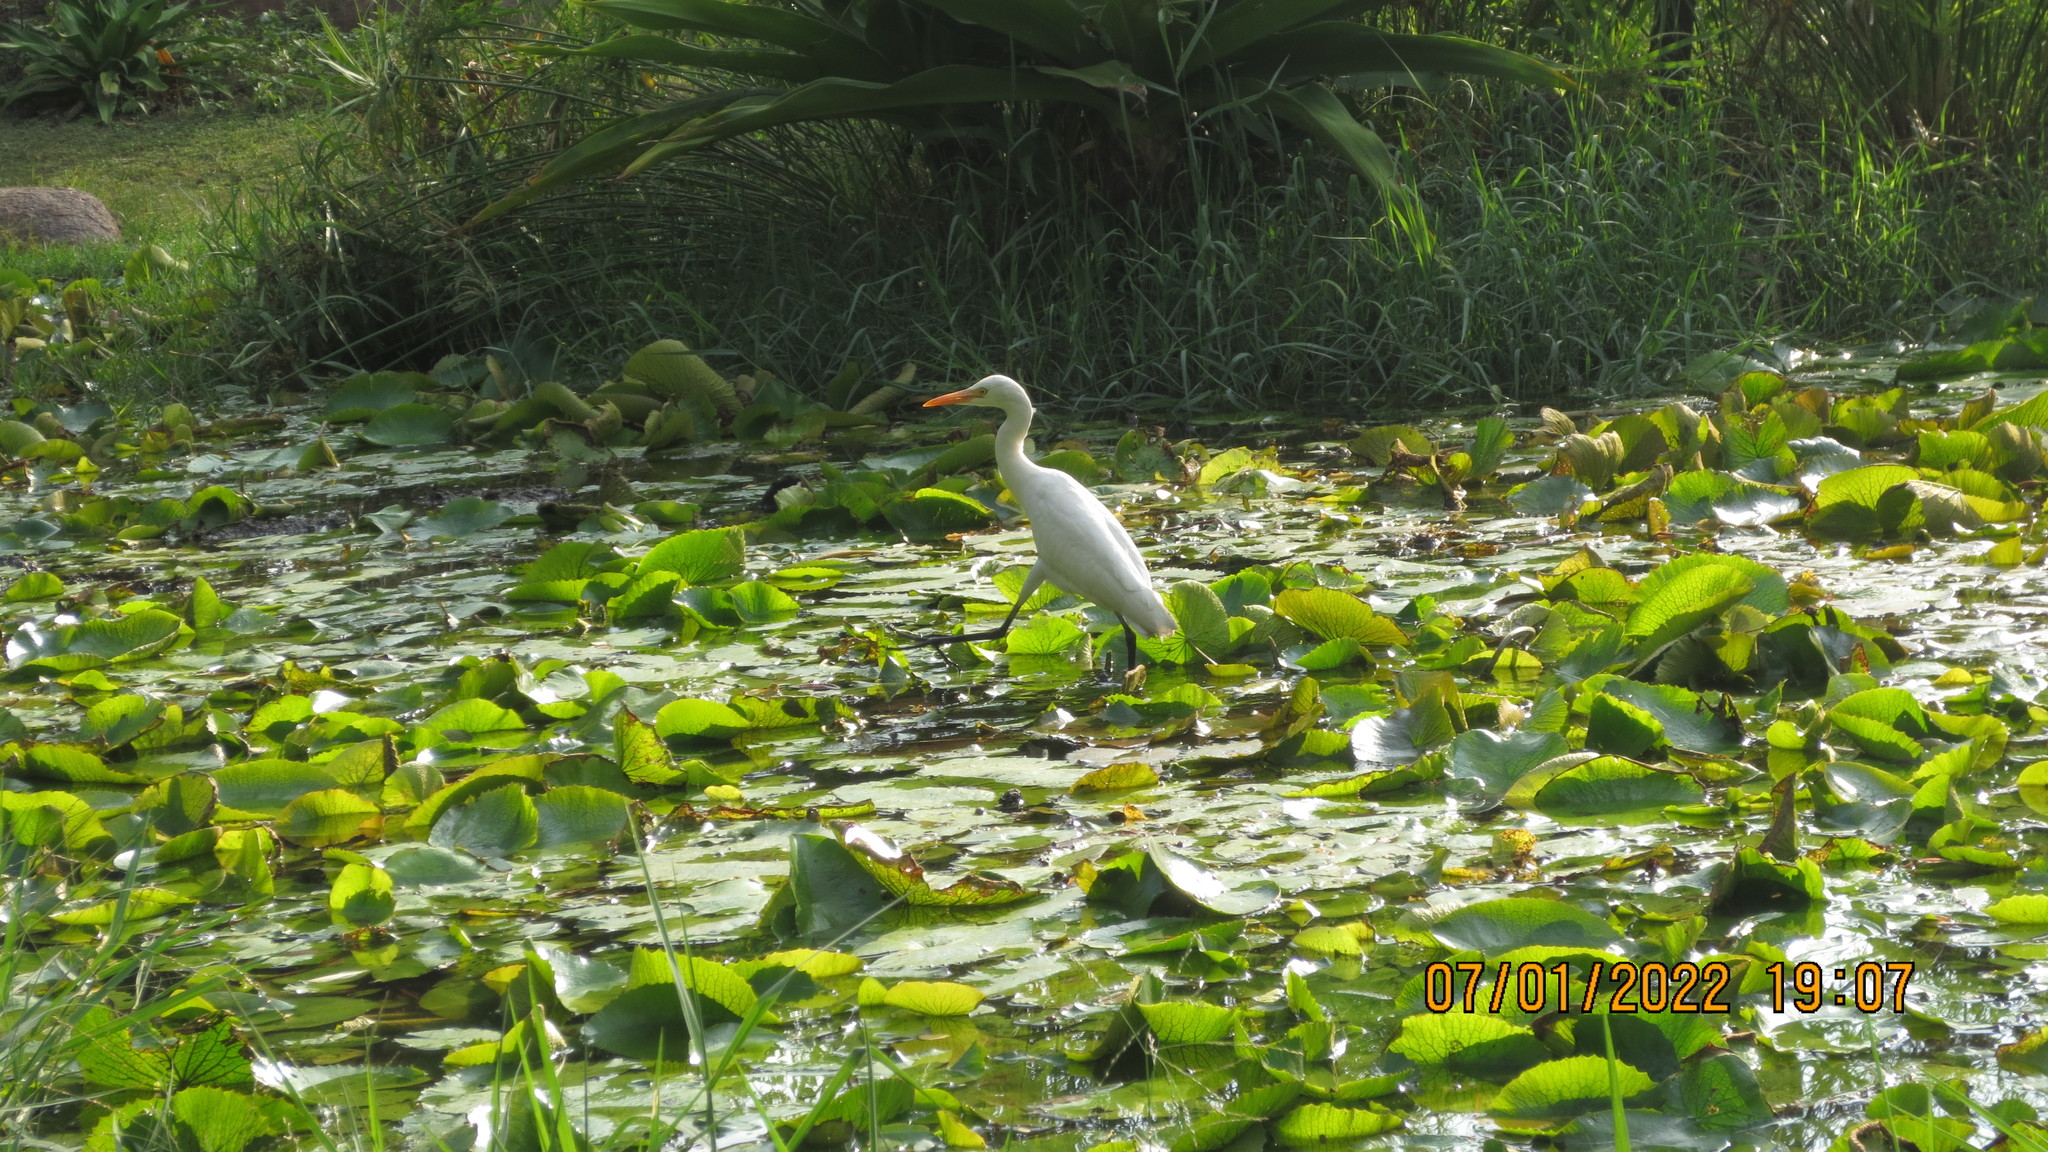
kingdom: Animalia
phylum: Chordata
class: Aves
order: Pelecaniformes
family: Ardeidae
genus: Bubulcus
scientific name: Bubulcus coromandus
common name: Eastern cattle egret
